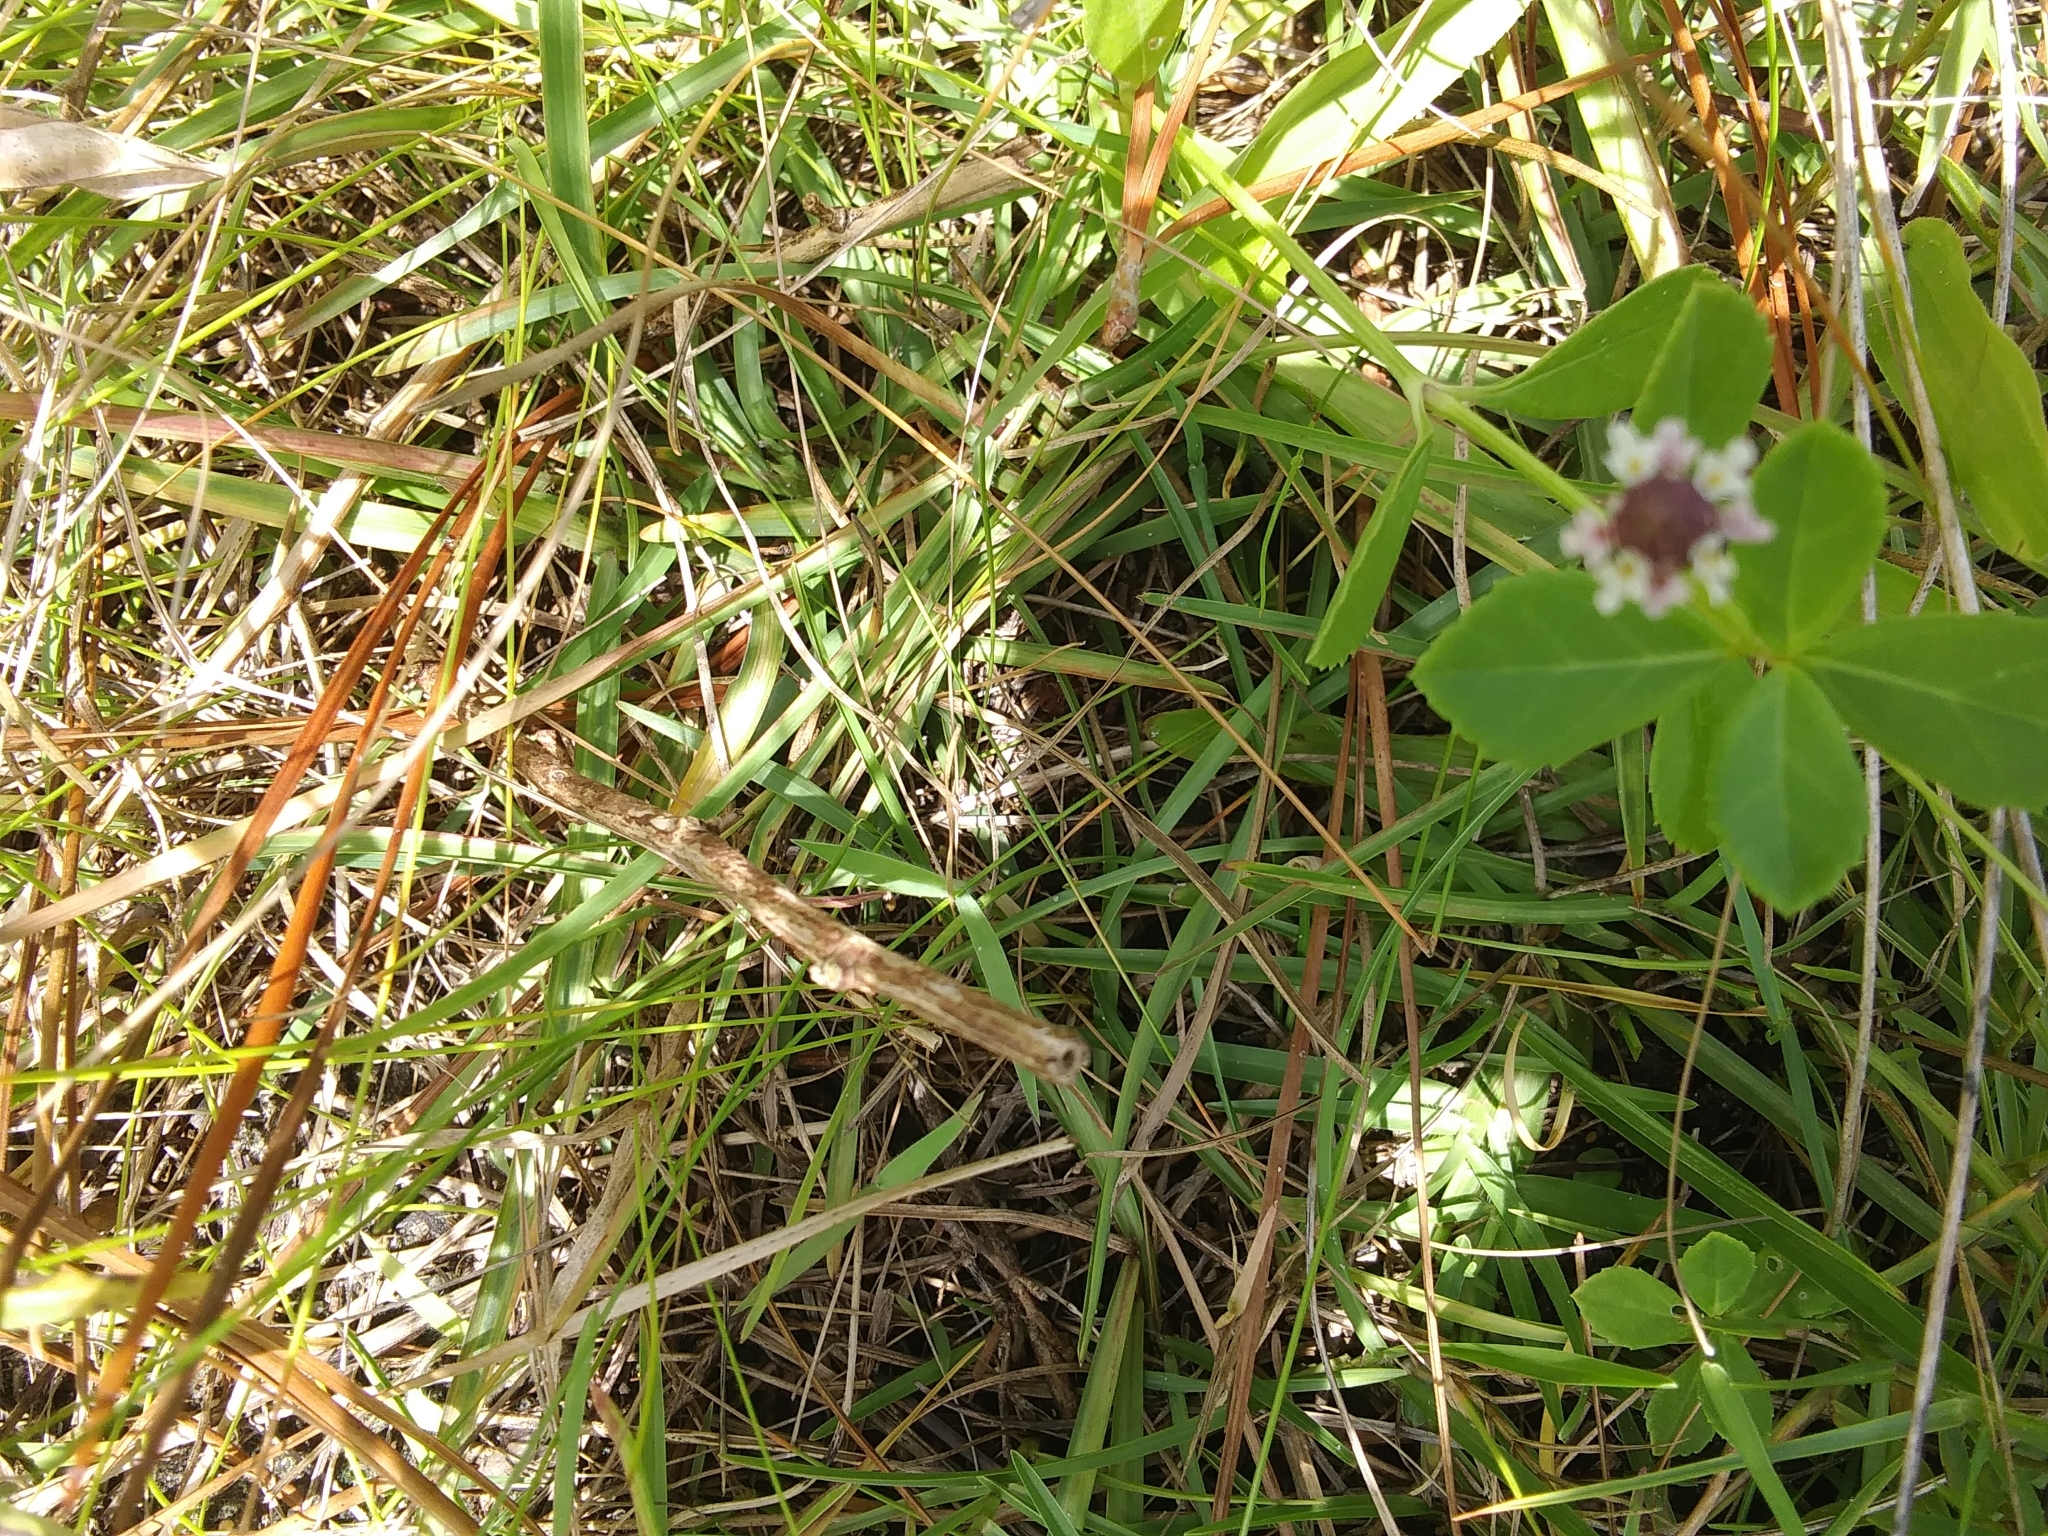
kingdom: Plantae
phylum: Tracheophyta
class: Magnoliopsida
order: Lamiales
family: Verbenaceae
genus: Phyla
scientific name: Phyla nodiflora
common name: Frogfruit
